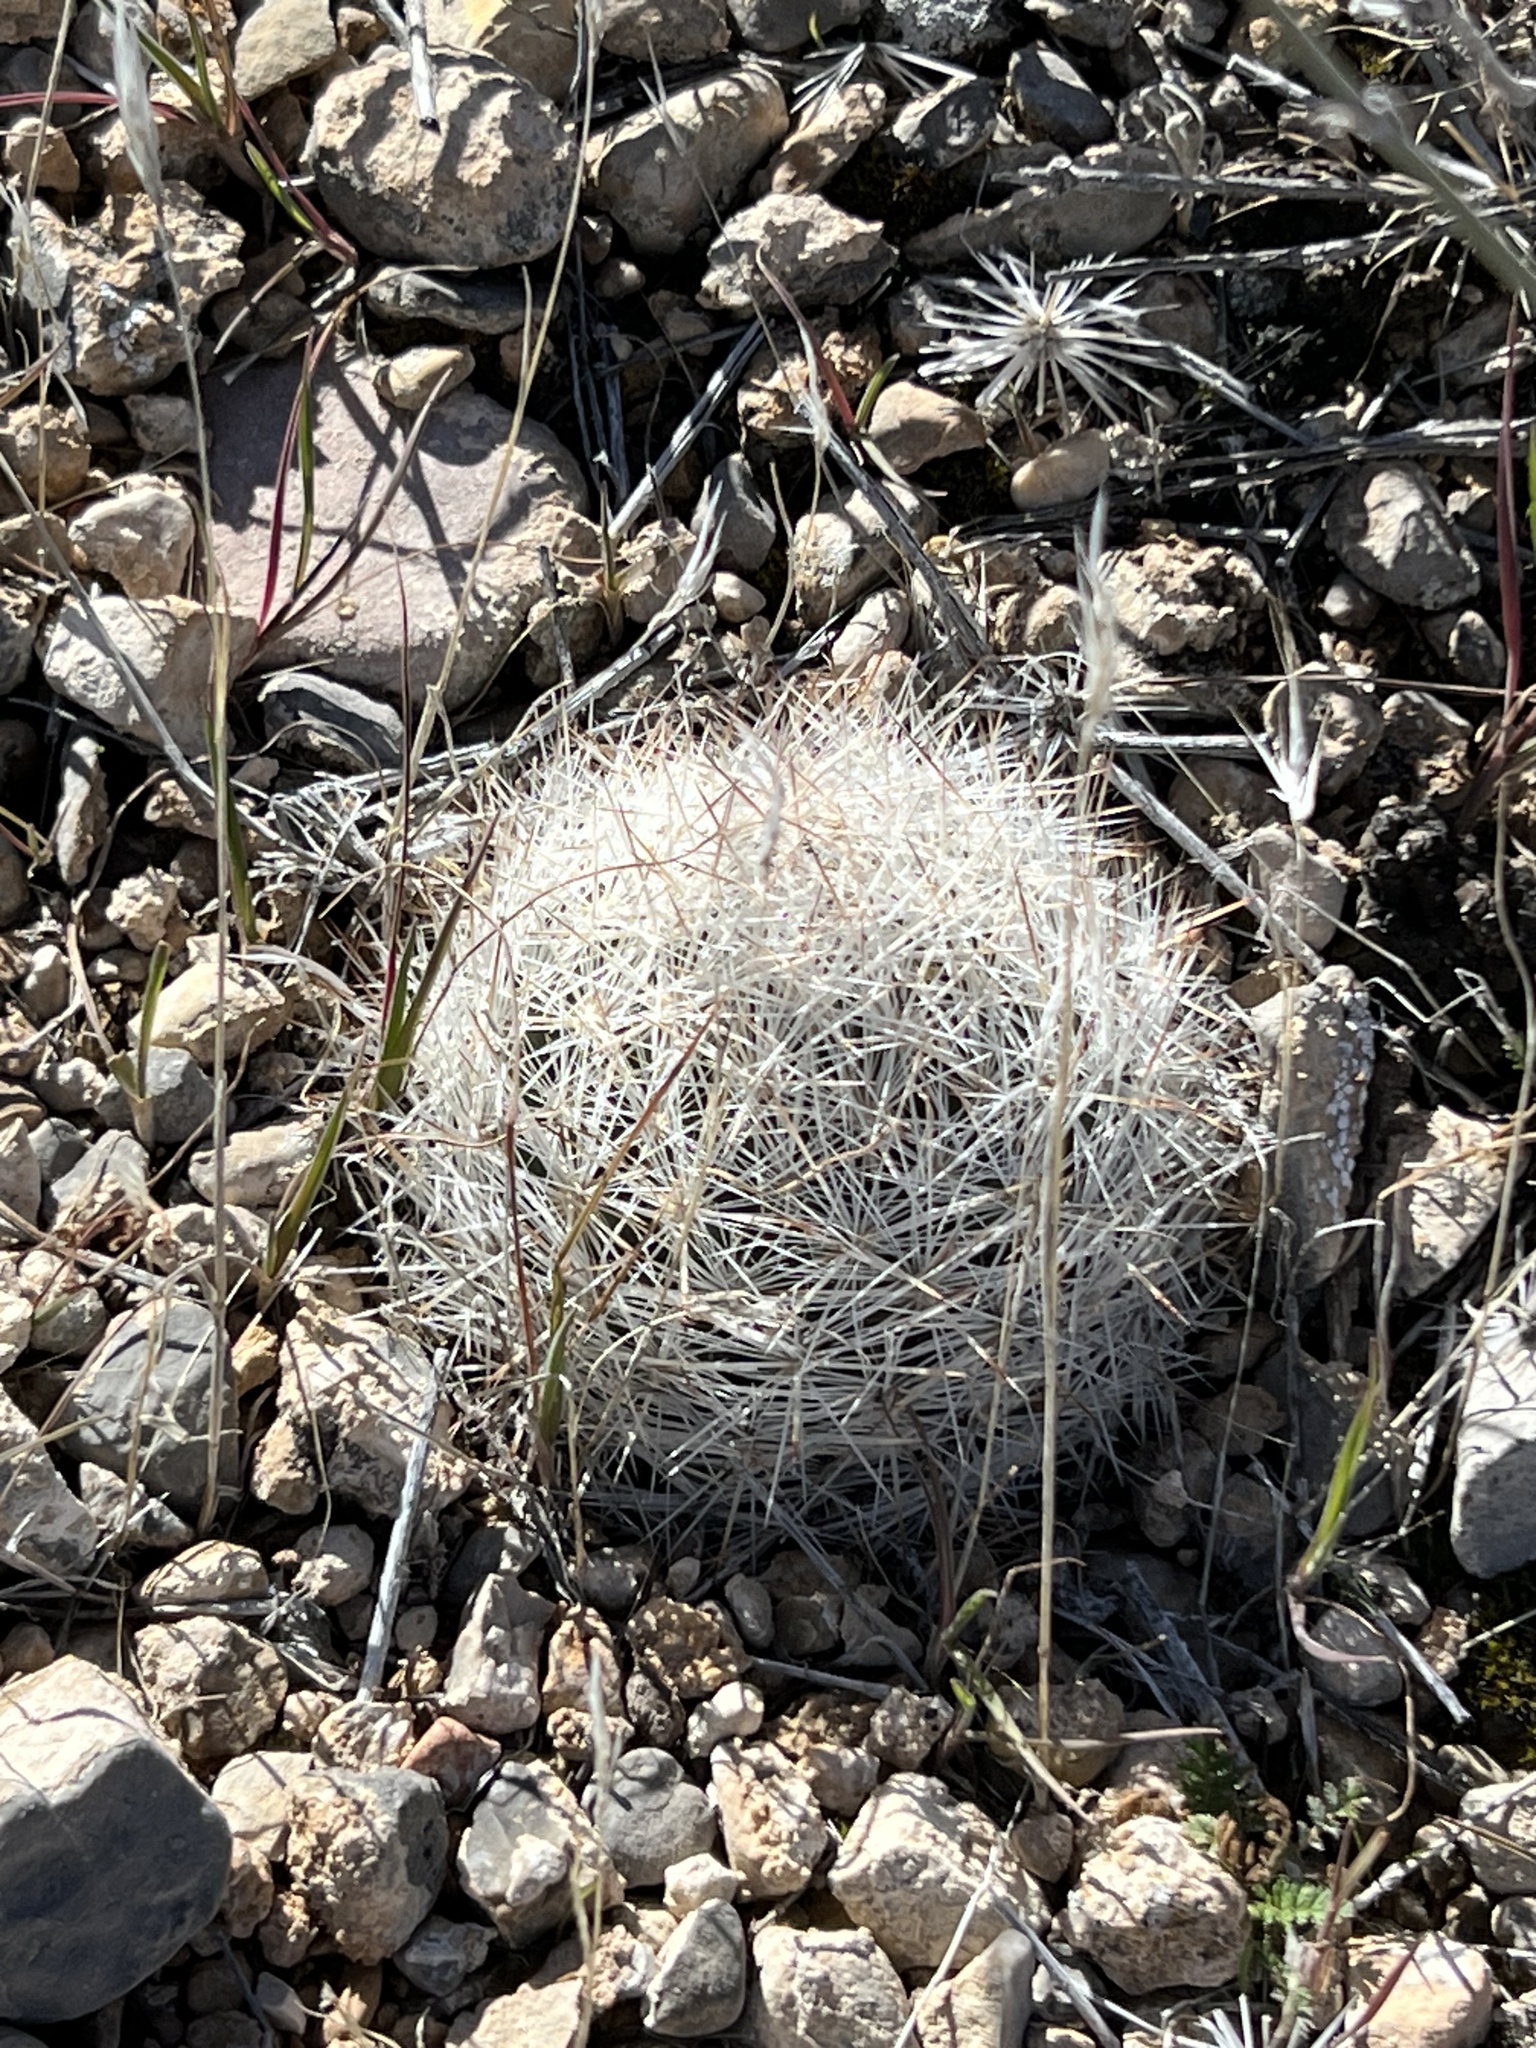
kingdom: Plantae
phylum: Tracheophyta
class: Magnoliopsida
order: Caryophyllales
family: Cactaceae
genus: Pelecyphora
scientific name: Pelecyphora dasyacantha
